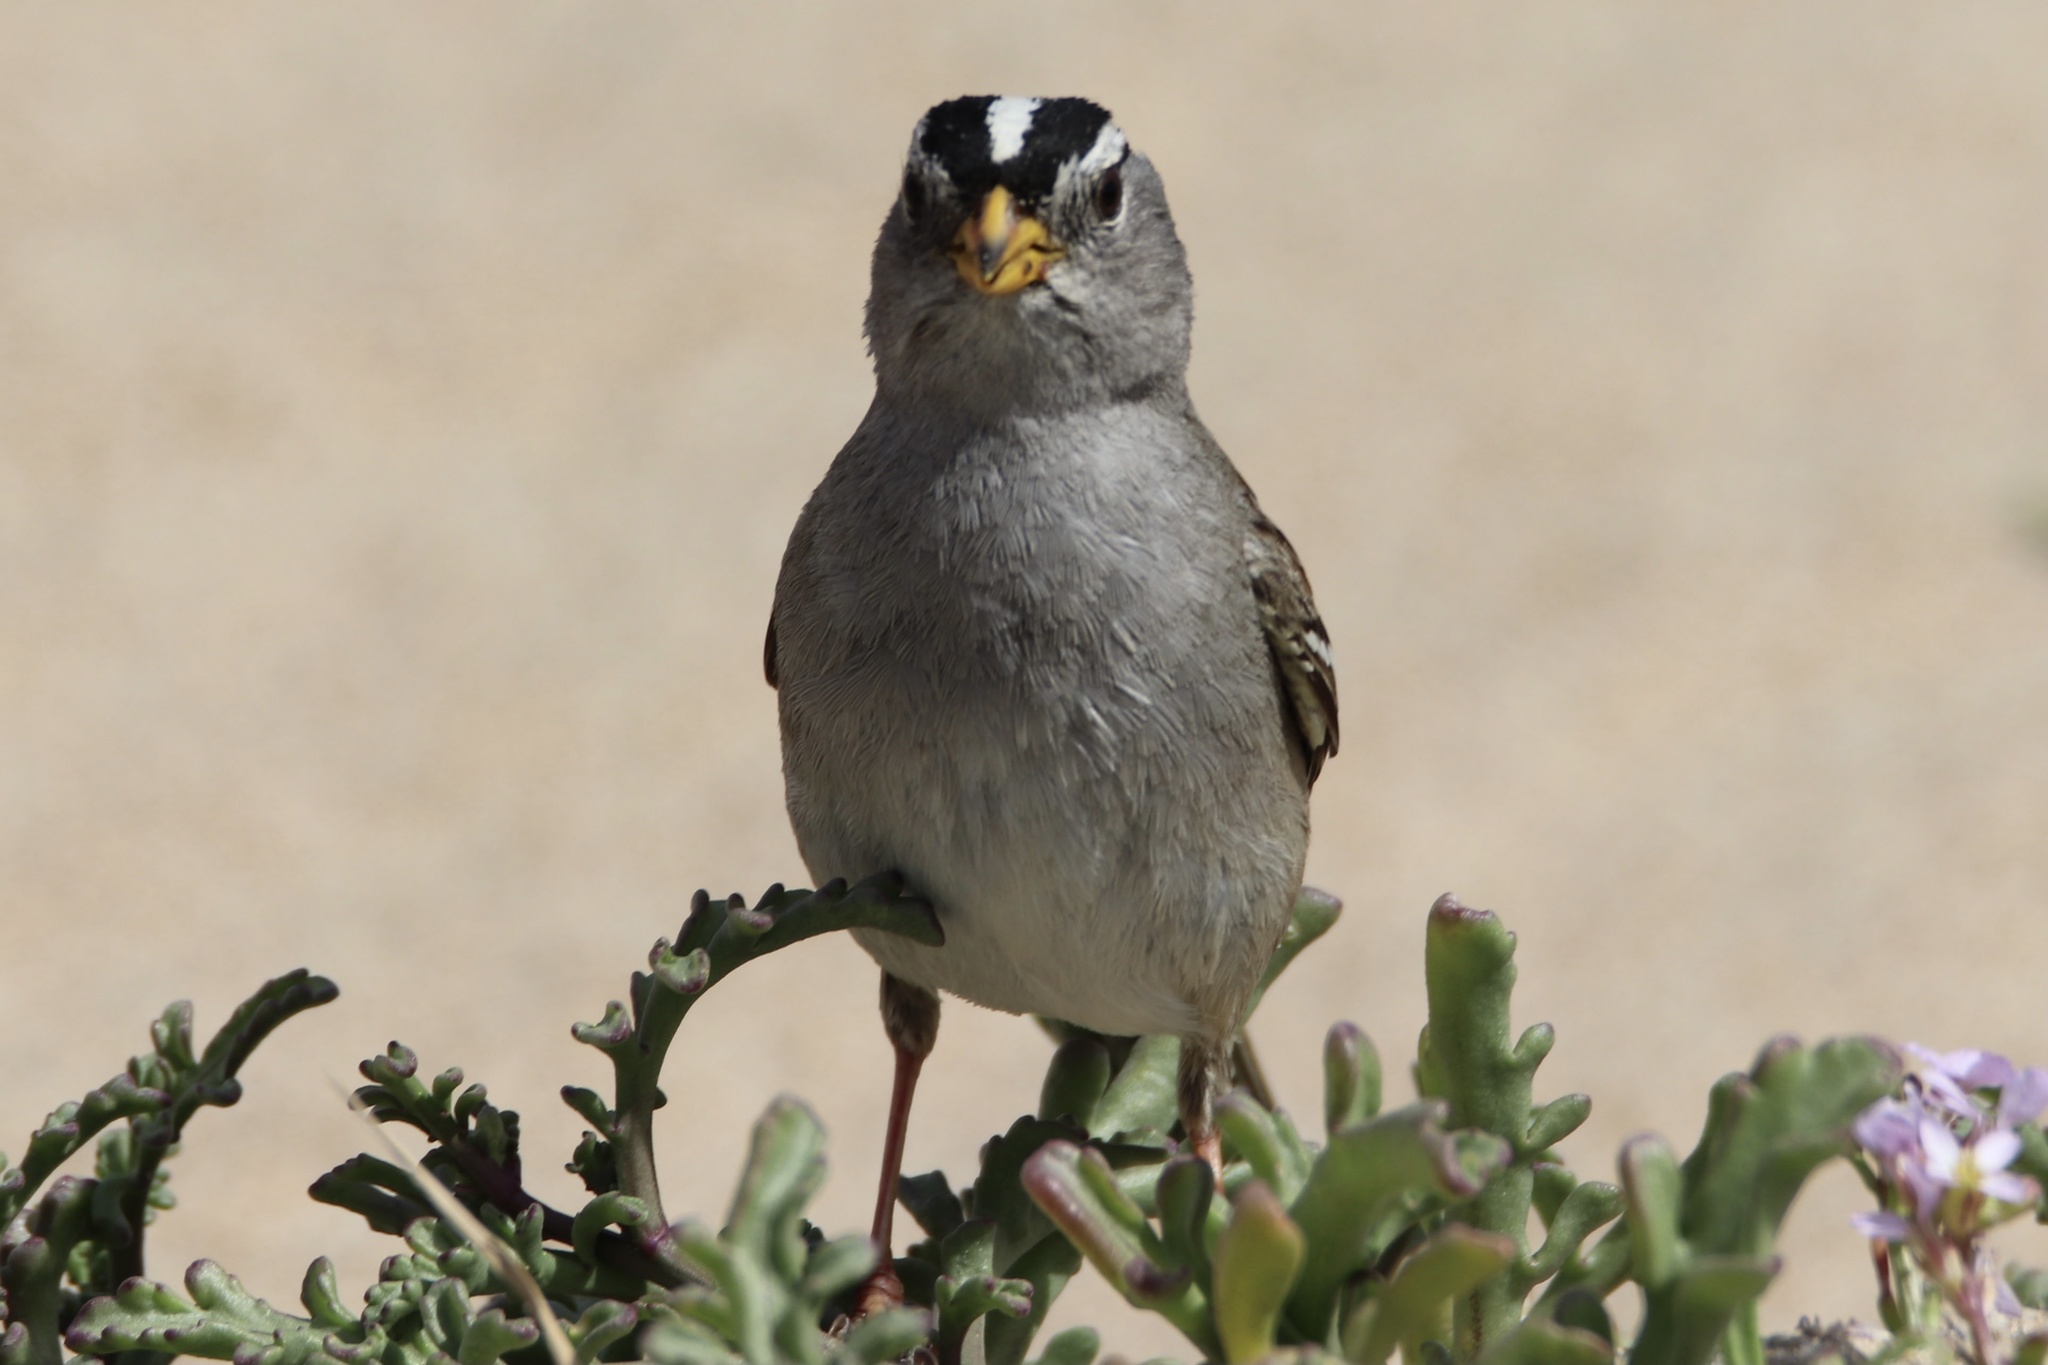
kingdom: Animalia
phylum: Chordata
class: Aves
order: Passeriformes
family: Passerellidae
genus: Zonotrichia
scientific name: Zonotrichia leucophrys
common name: White-crowned sparrow
